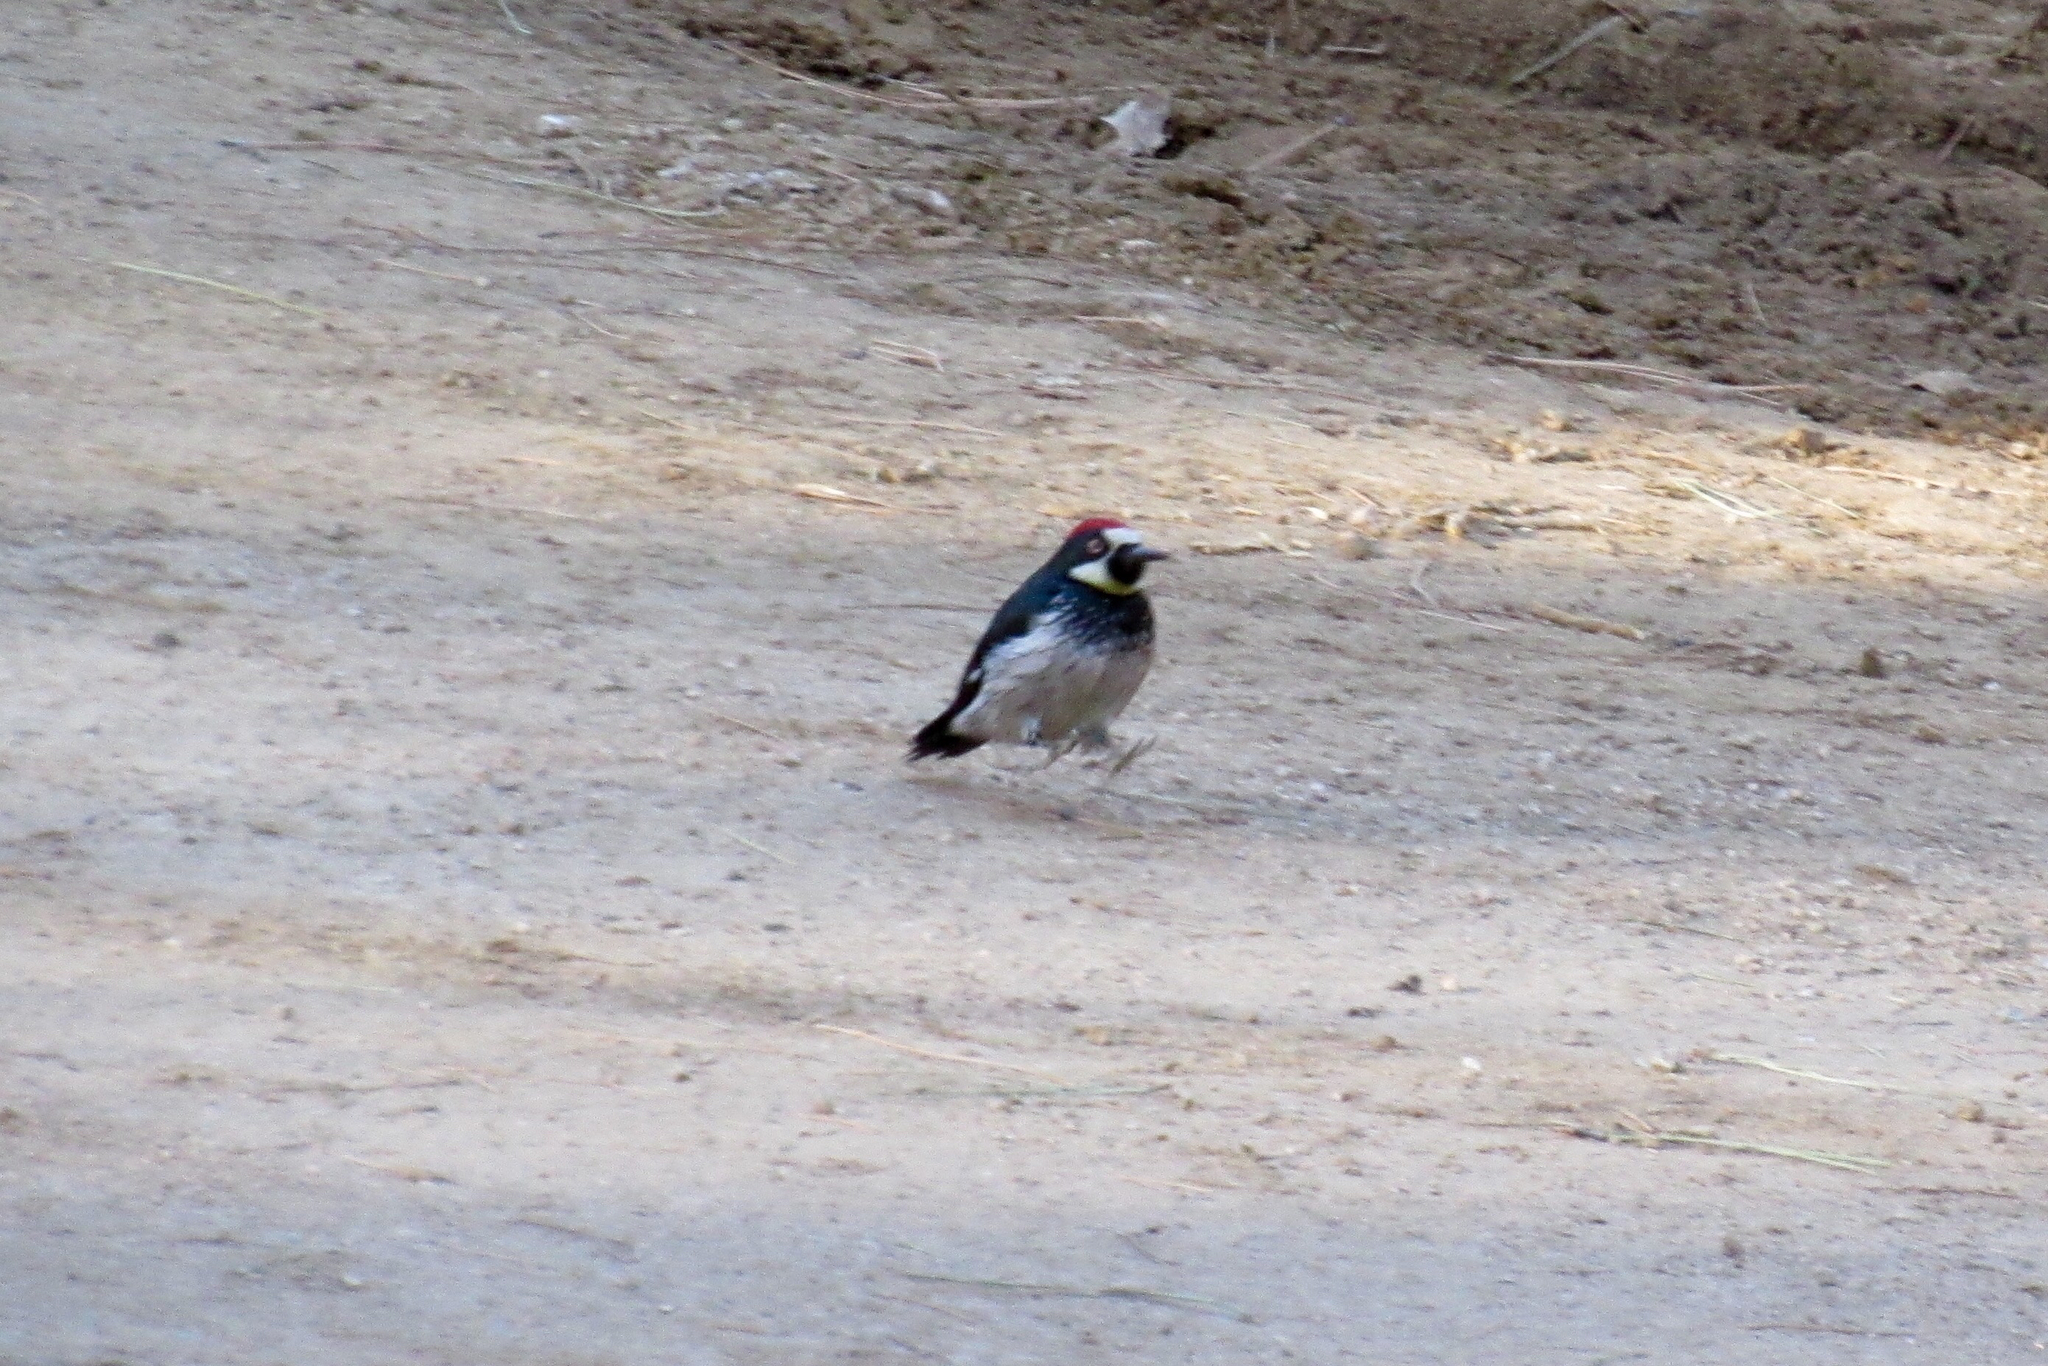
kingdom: Animalia
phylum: Chordata
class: Aves
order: Piciformes
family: Picidae
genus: Melanerpes
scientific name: Melanerpes formicivorus
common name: Acorn woodpecker
